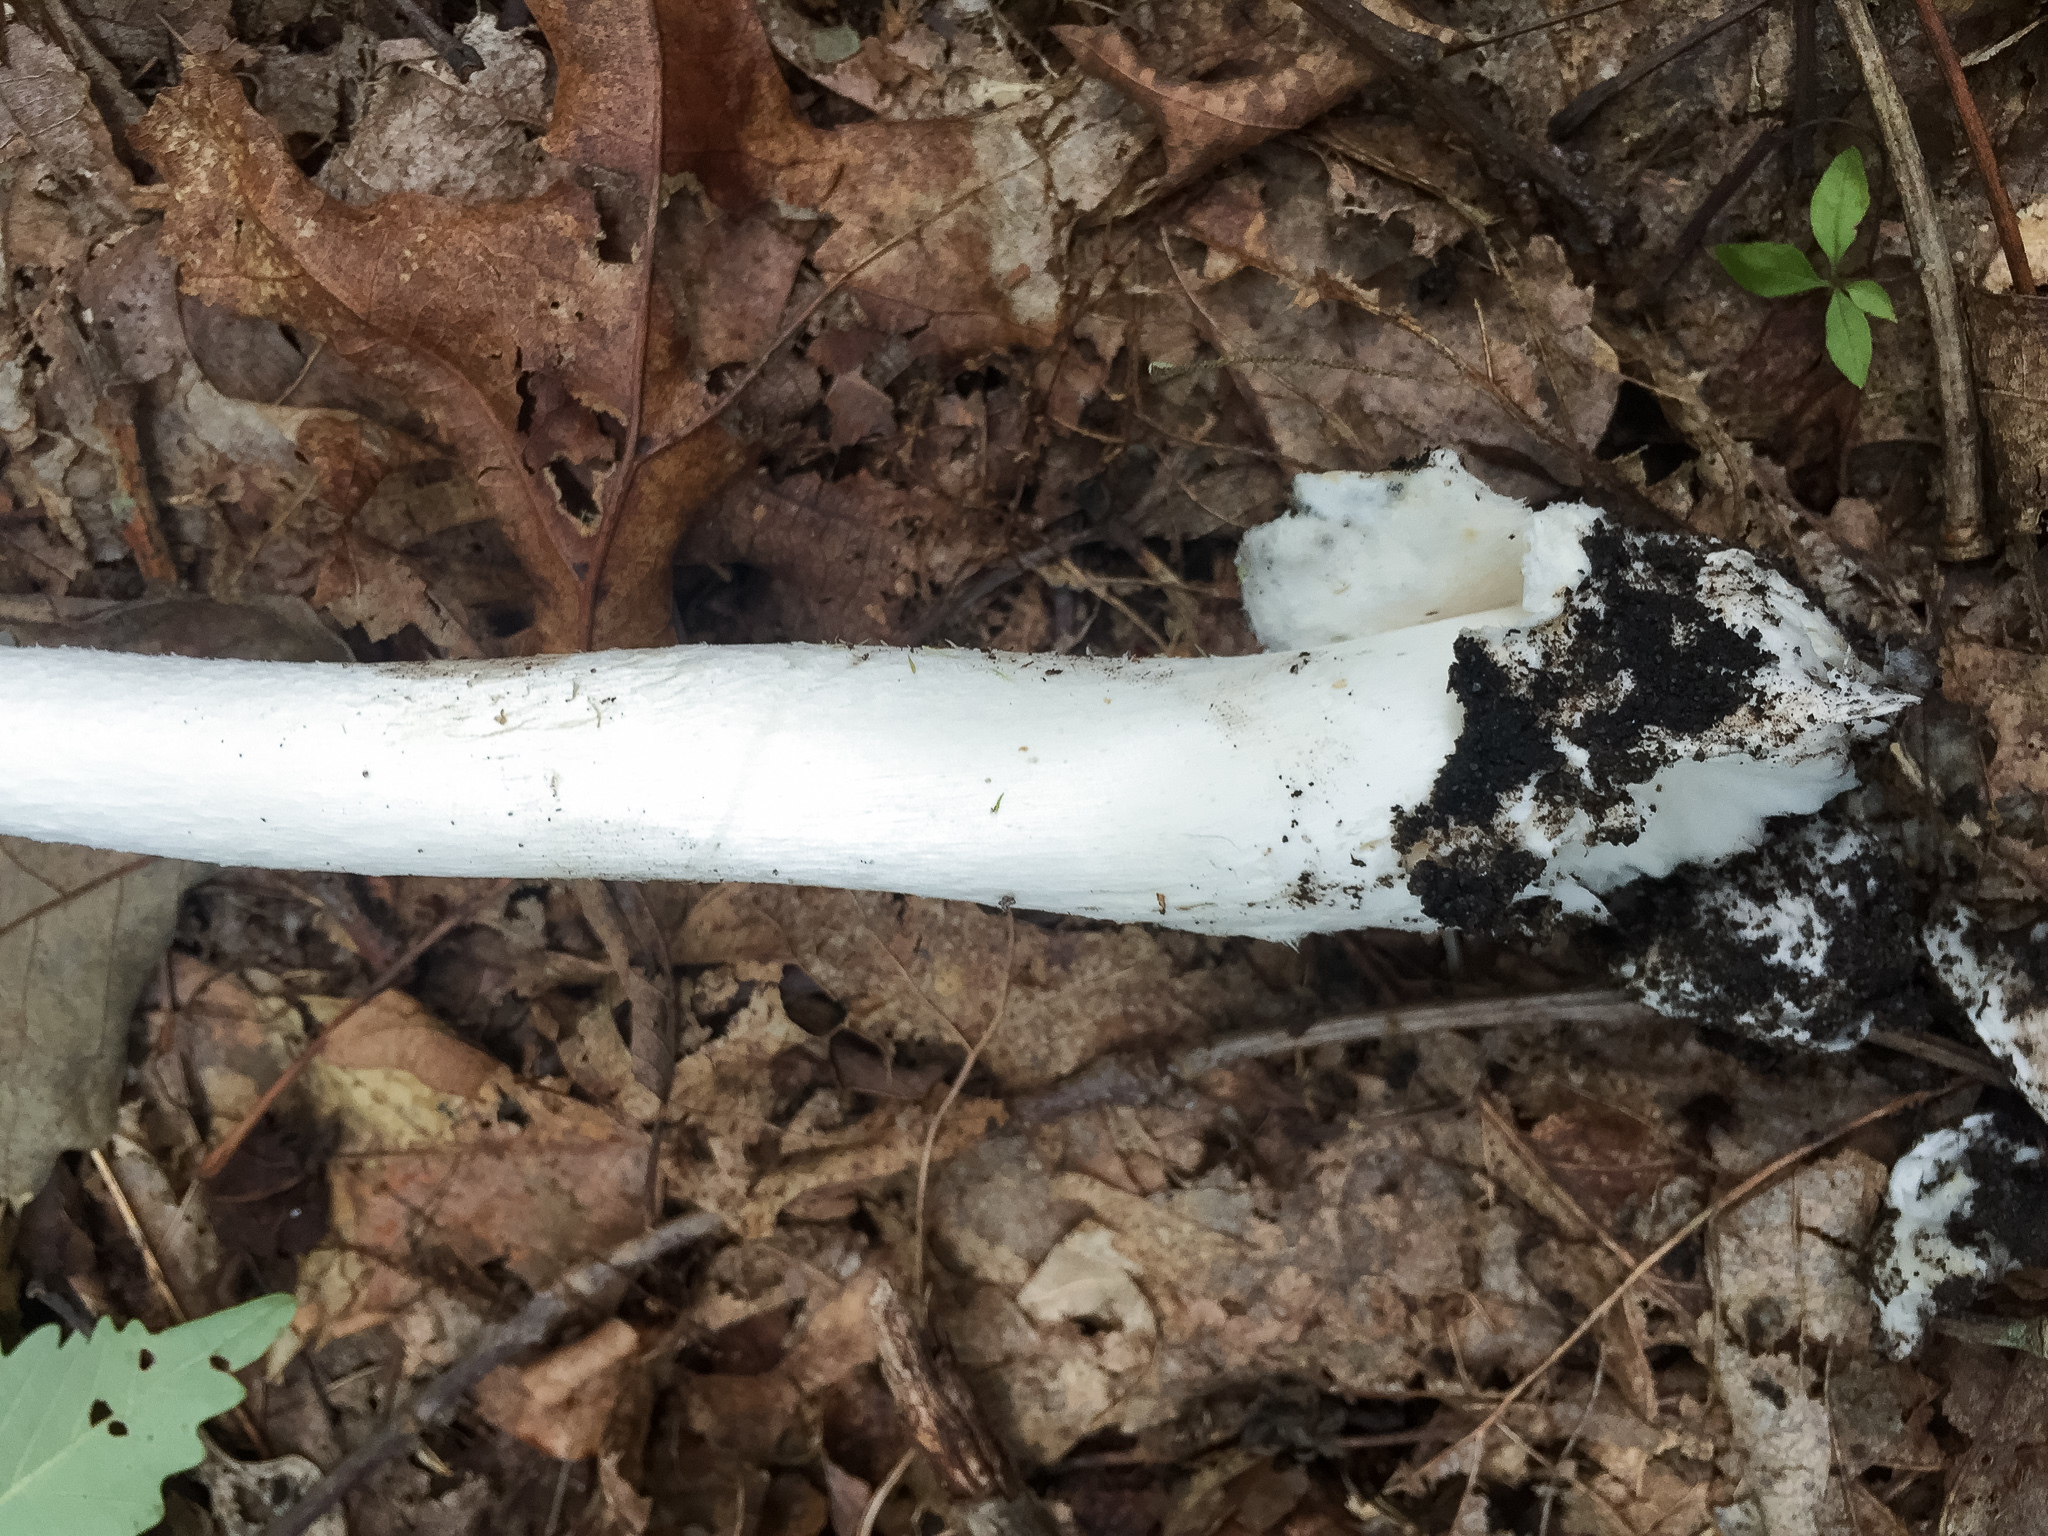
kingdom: Fungi
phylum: Basidiomycota
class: Agaricomycetes
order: Agaricales
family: Amanitaceae
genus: Amanita
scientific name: Amanita bisporigera
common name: Eastern north american destroying angel
